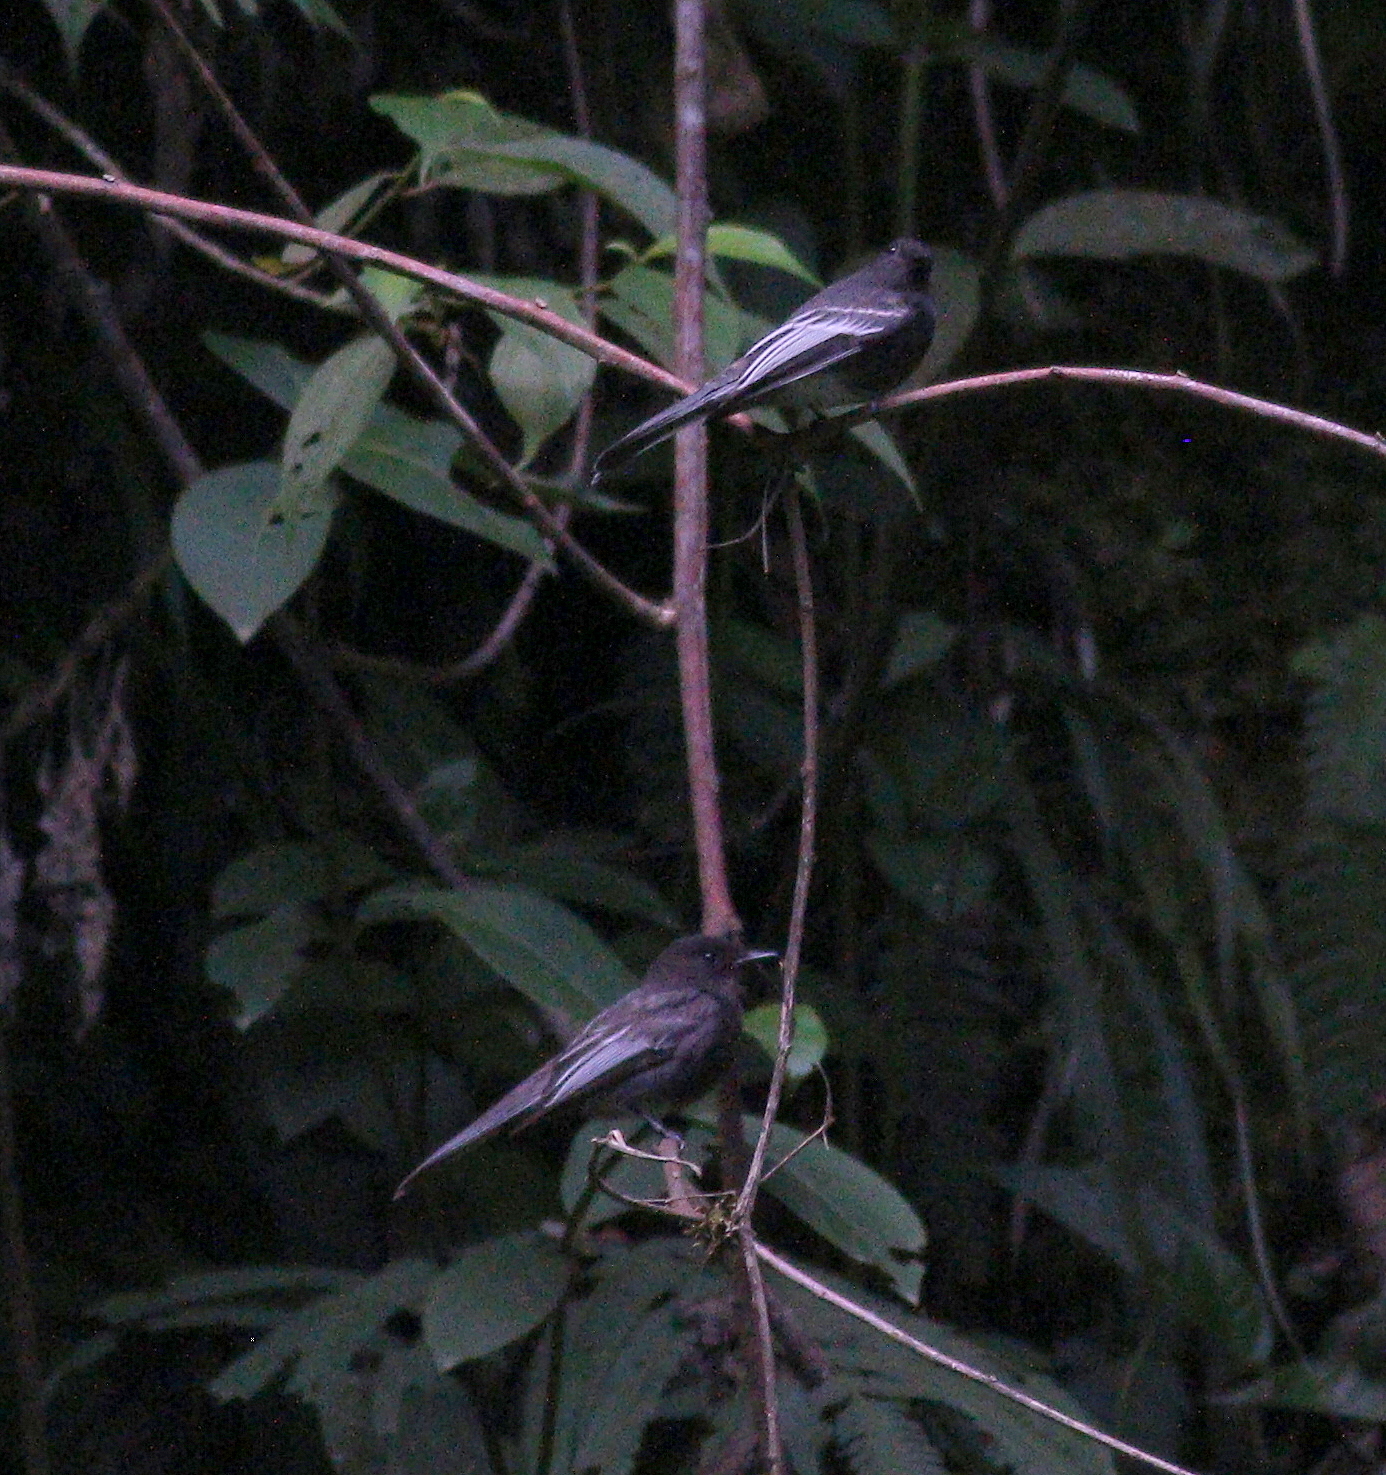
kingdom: Animalia
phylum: Chordata
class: Aves
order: Passeriformes
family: Tyrannidae
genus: Sayornis
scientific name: Sayornis nigricans
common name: Black phoebe
